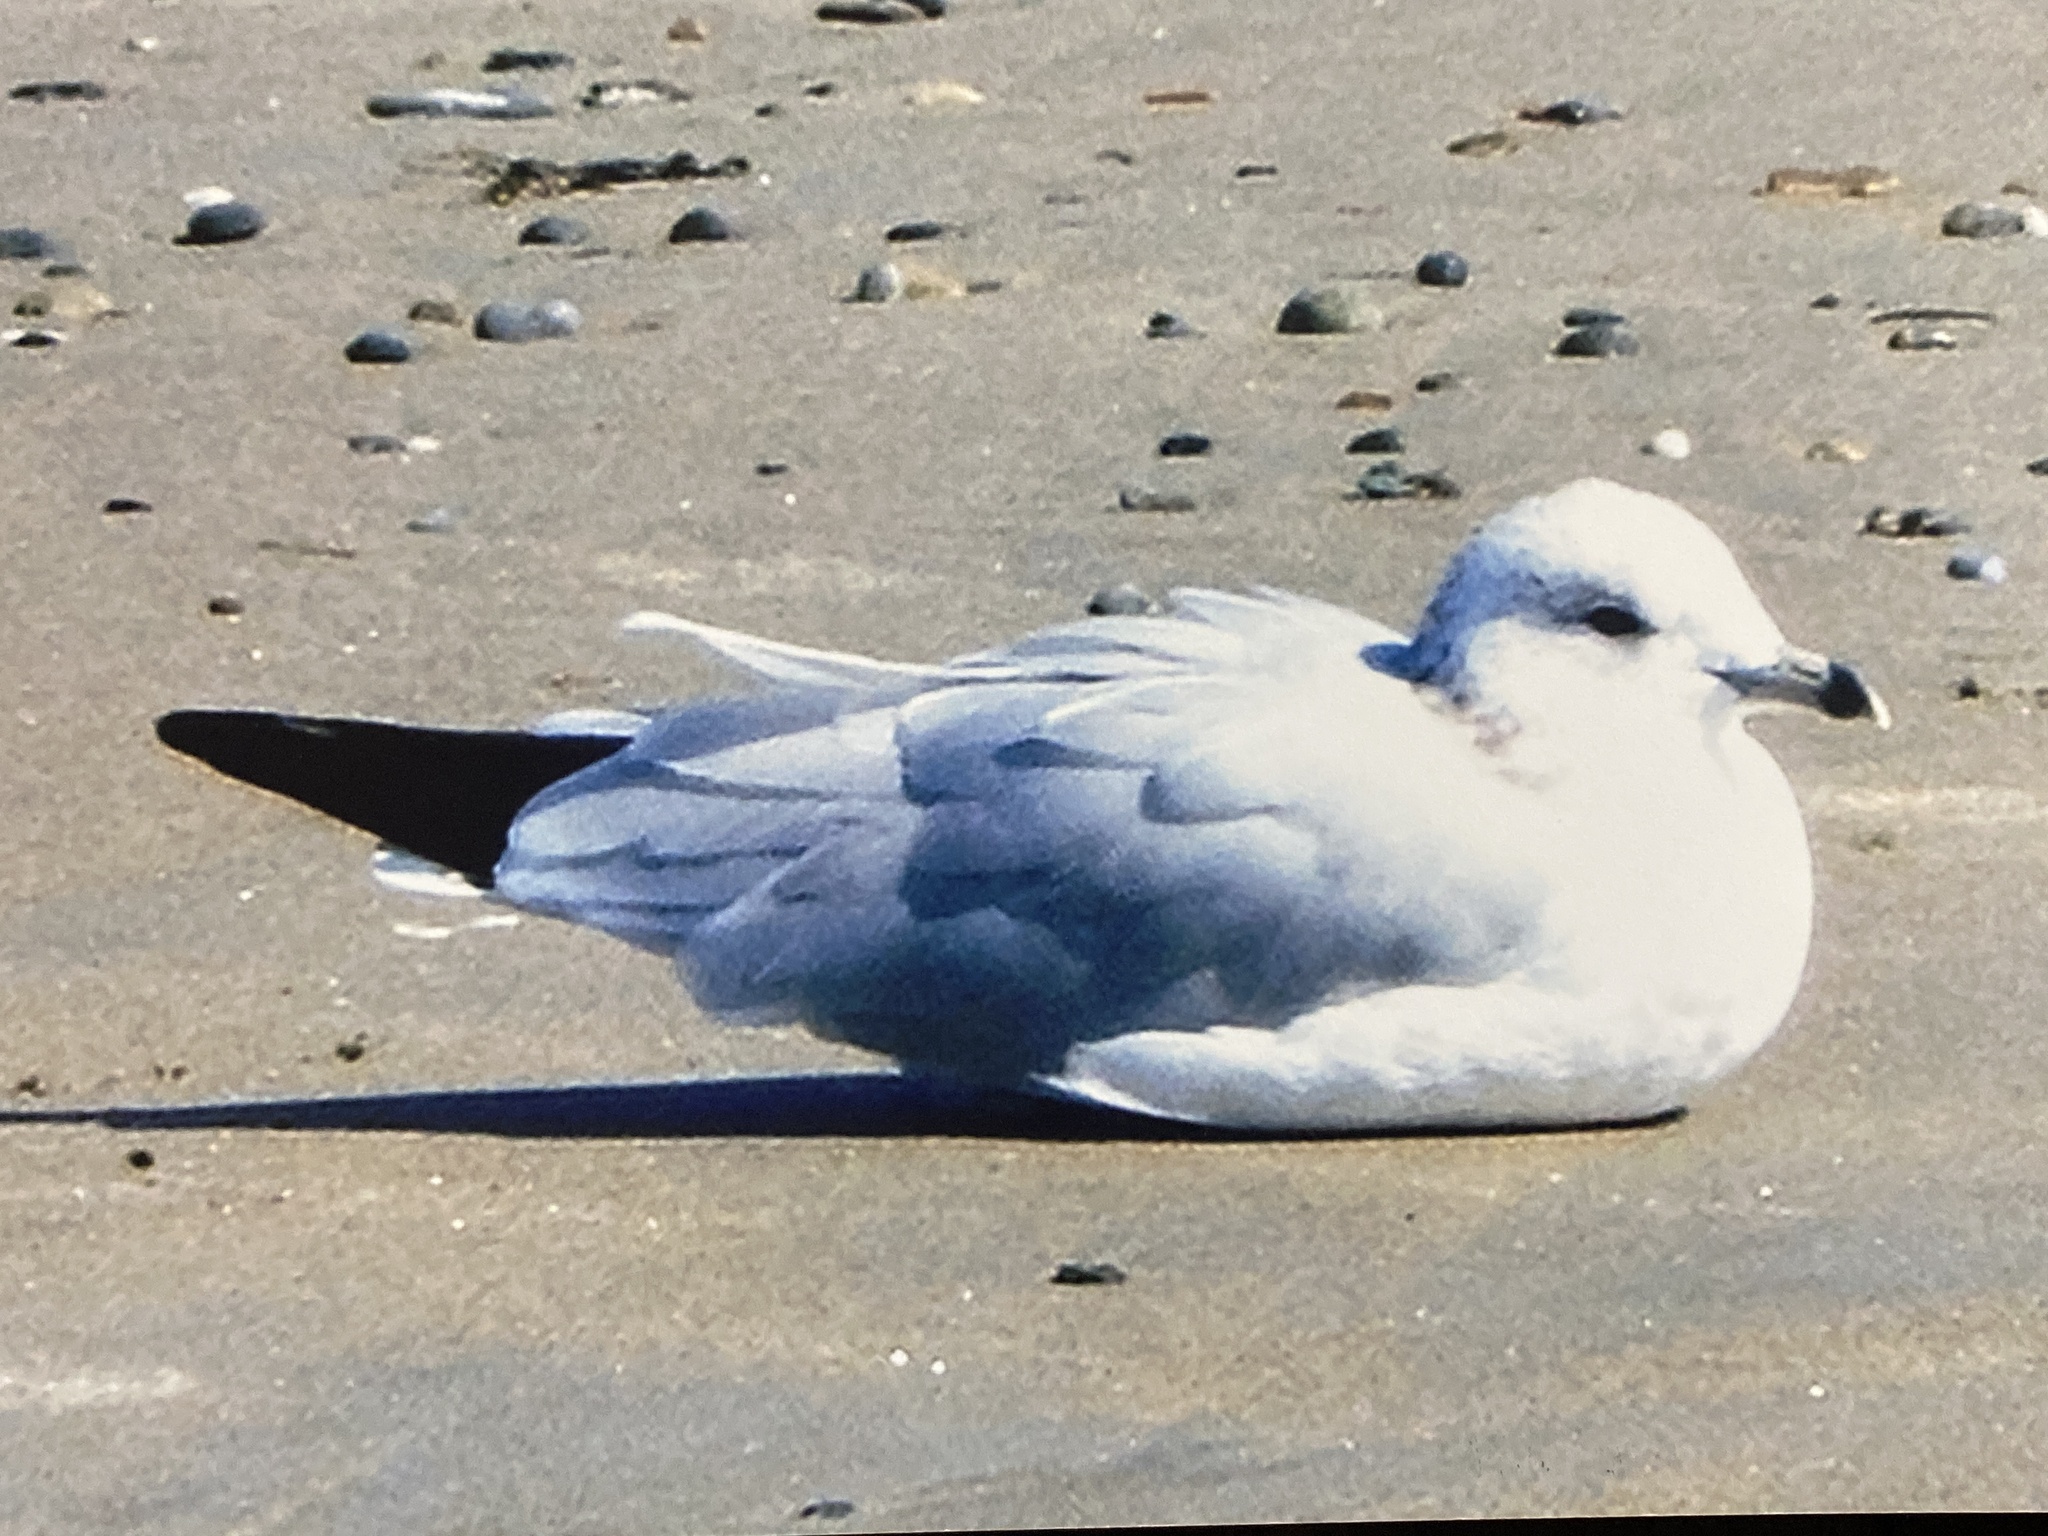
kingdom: Animalia
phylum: Chordata
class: Aves
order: Charadriiformes
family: Laridae
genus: Larus
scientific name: Larus delawarensis
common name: Ring-billed gull
